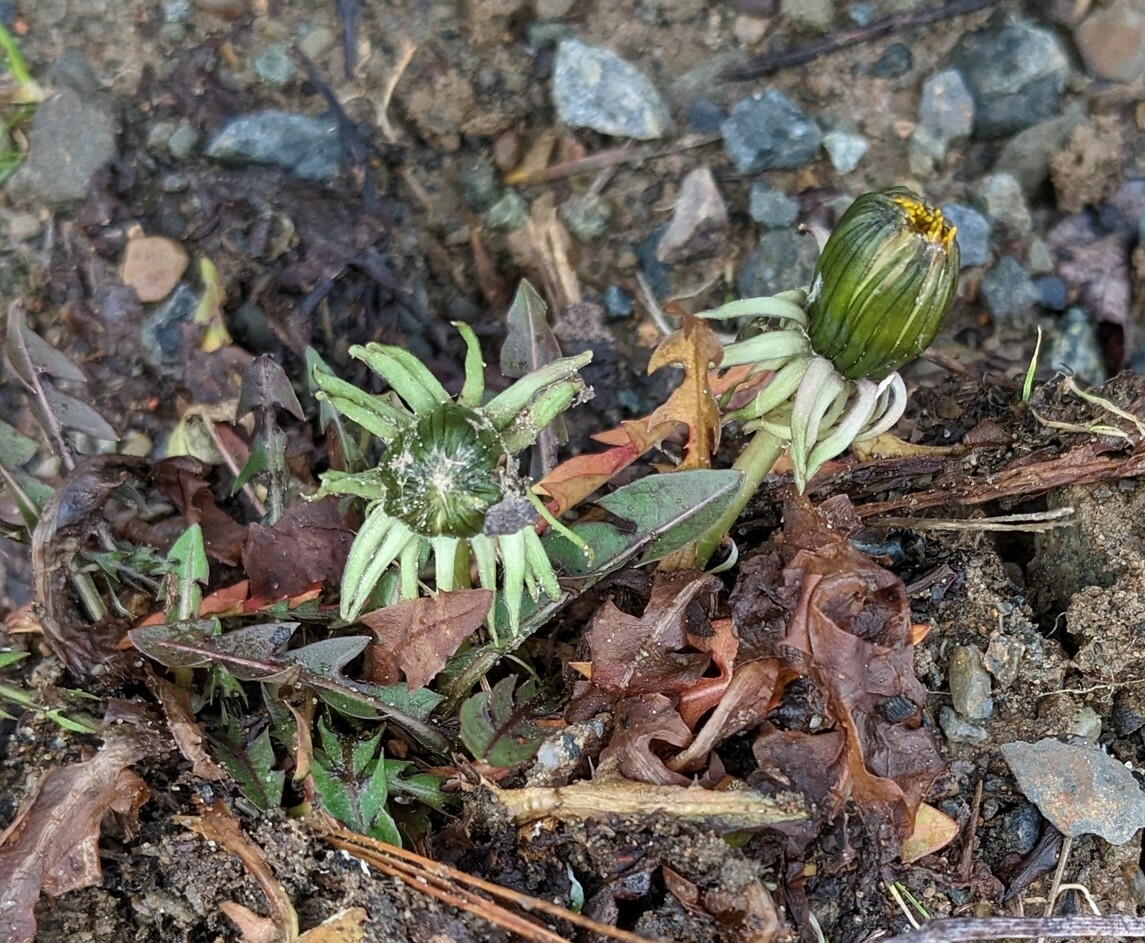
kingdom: Plantae
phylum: Tracheophyta
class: Magnoliopsida
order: Asterales
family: Asteraceae
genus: Taraxacum
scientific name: Taraxacum officinale
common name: Common dandelion
